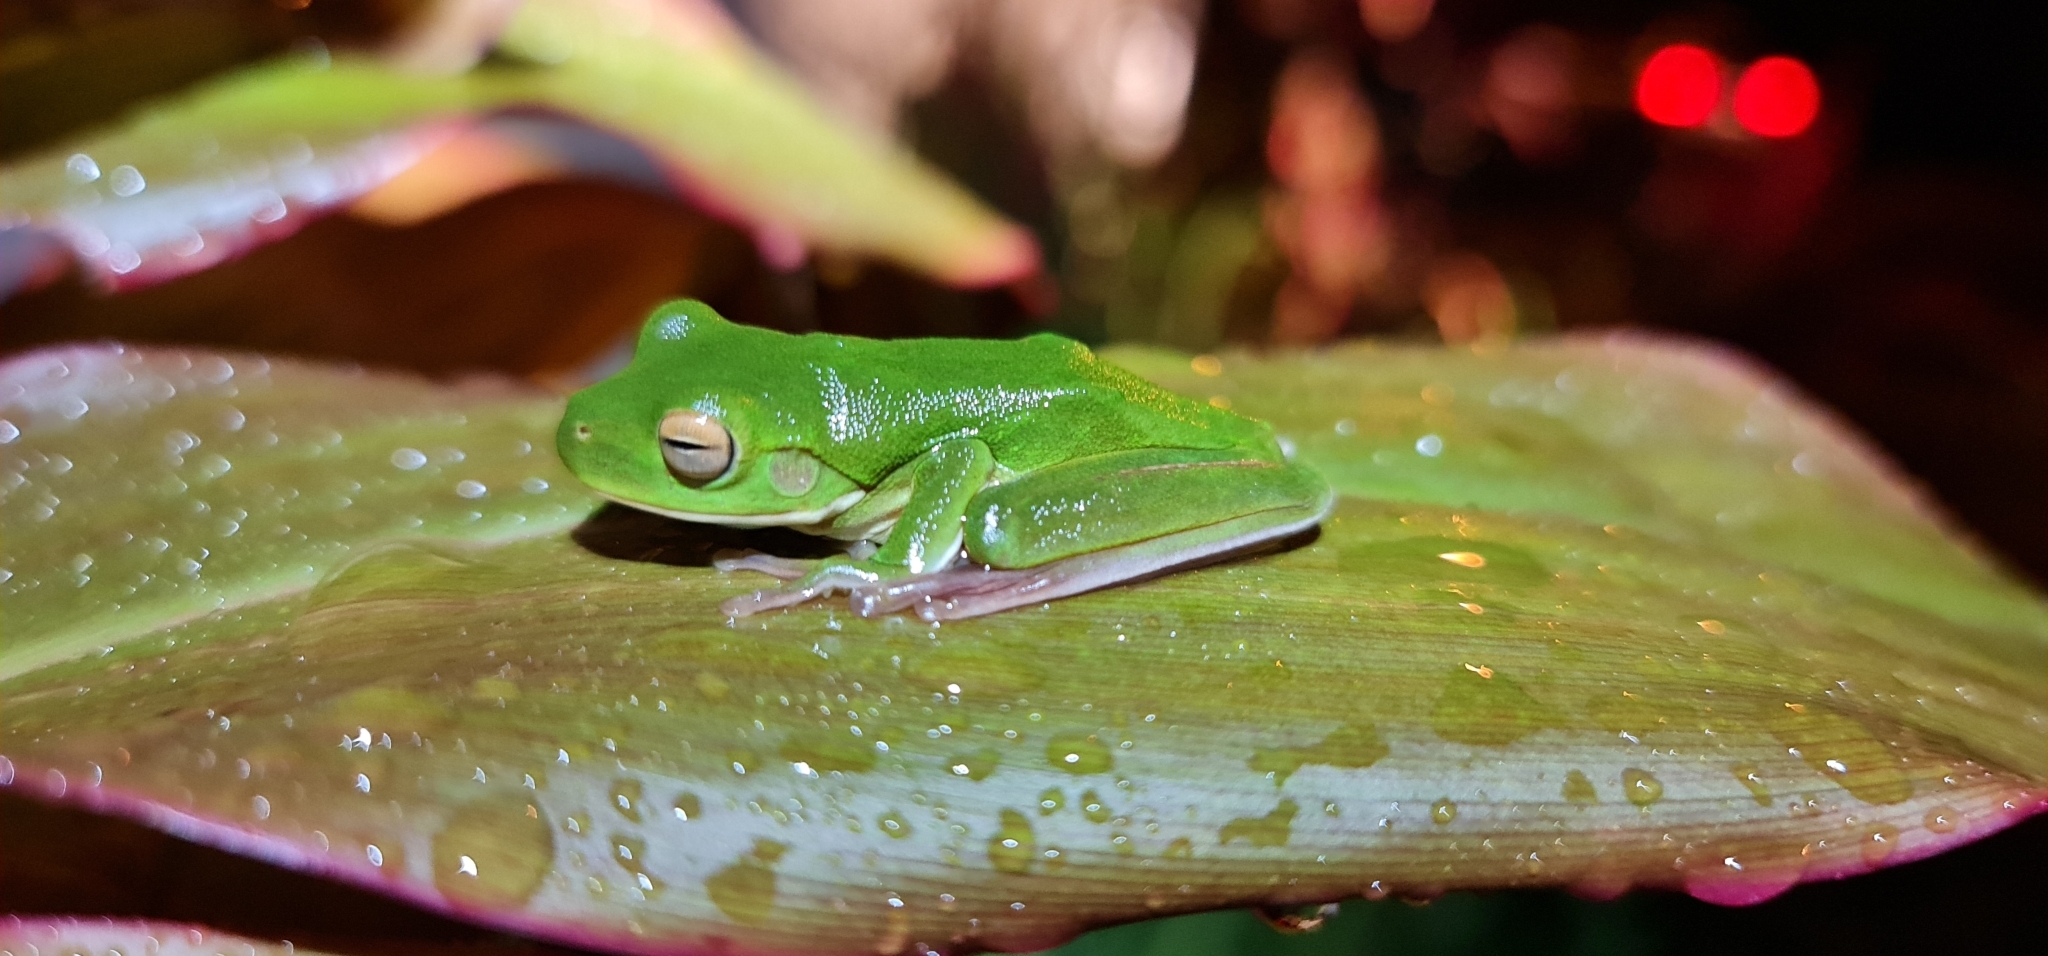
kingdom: Animalia
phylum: Chordata
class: Amphibia
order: Anura
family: Pelodryadidae
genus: Nyctimystes
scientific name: Nyctimystes infrafrenatus
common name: Australian giant treefrog
